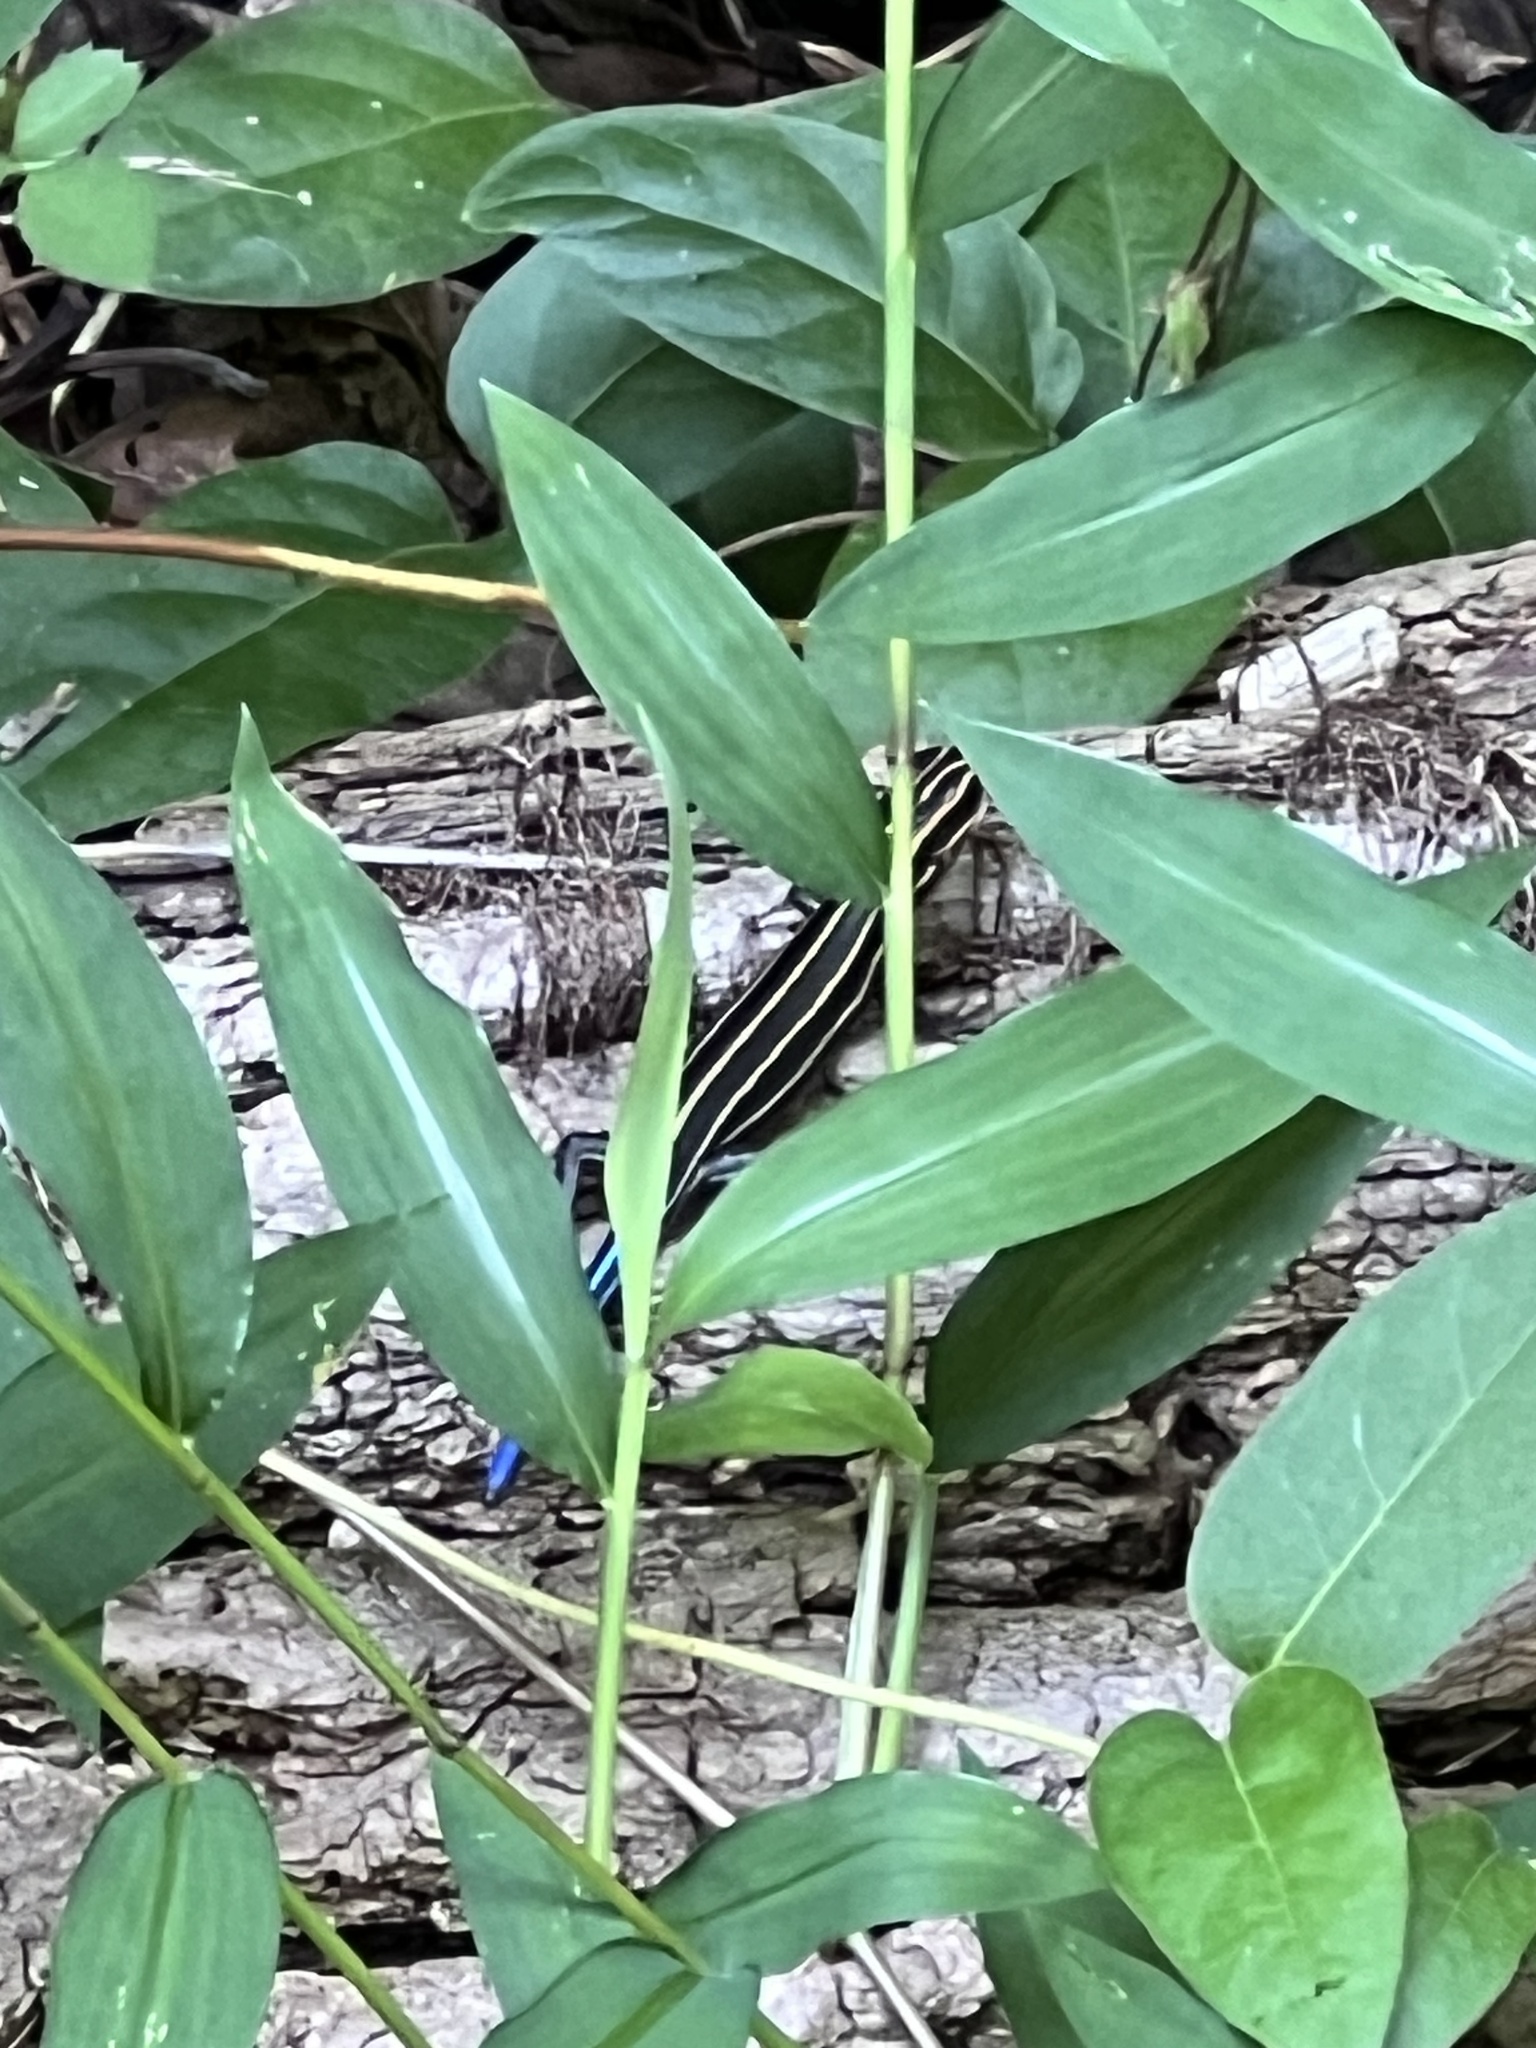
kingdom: Animalia
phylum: Chordata
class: Squamata
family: Scincidae
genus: Plestiodon
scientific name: Plestiodon laticeps
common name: Broadhead skink
